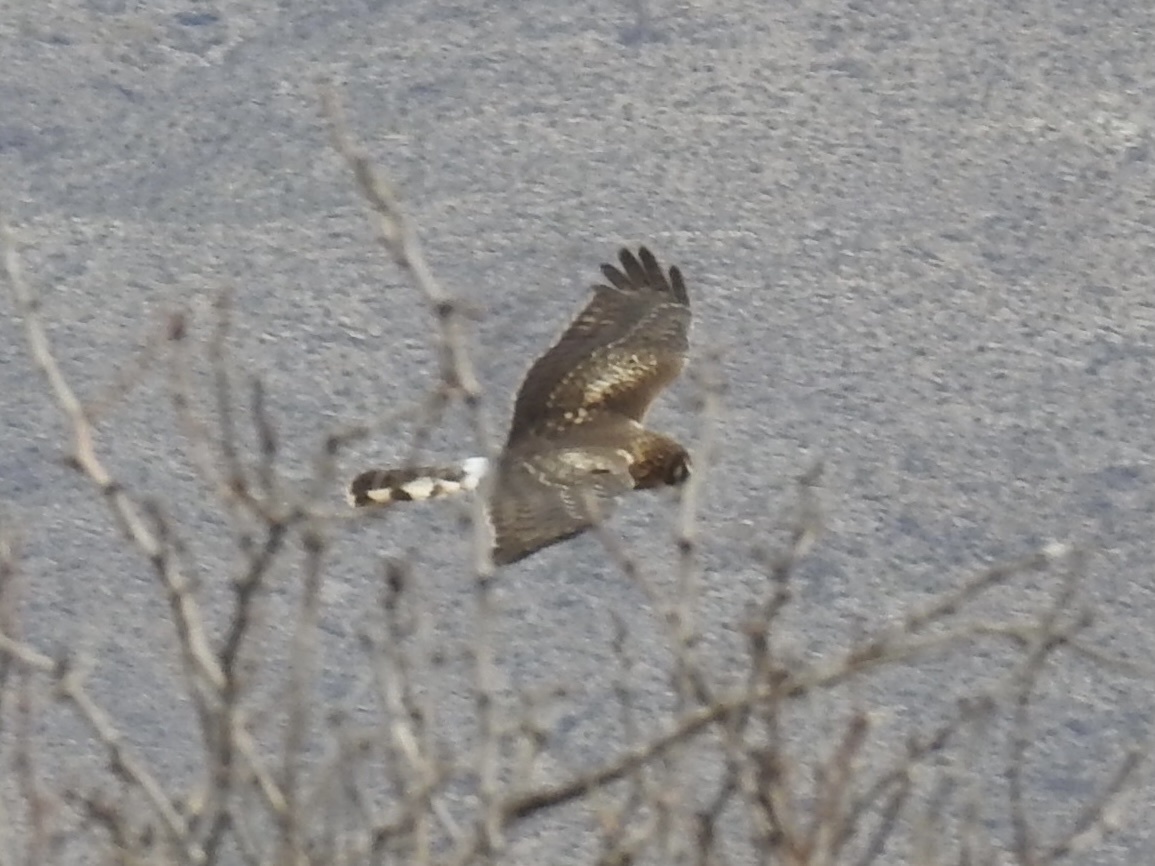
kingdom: Animalia
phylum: Chordata
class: Aves
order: Accipitriformes
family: Accipitridae
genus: Circus
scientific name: Circus cyaneus
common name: Hen harrier
